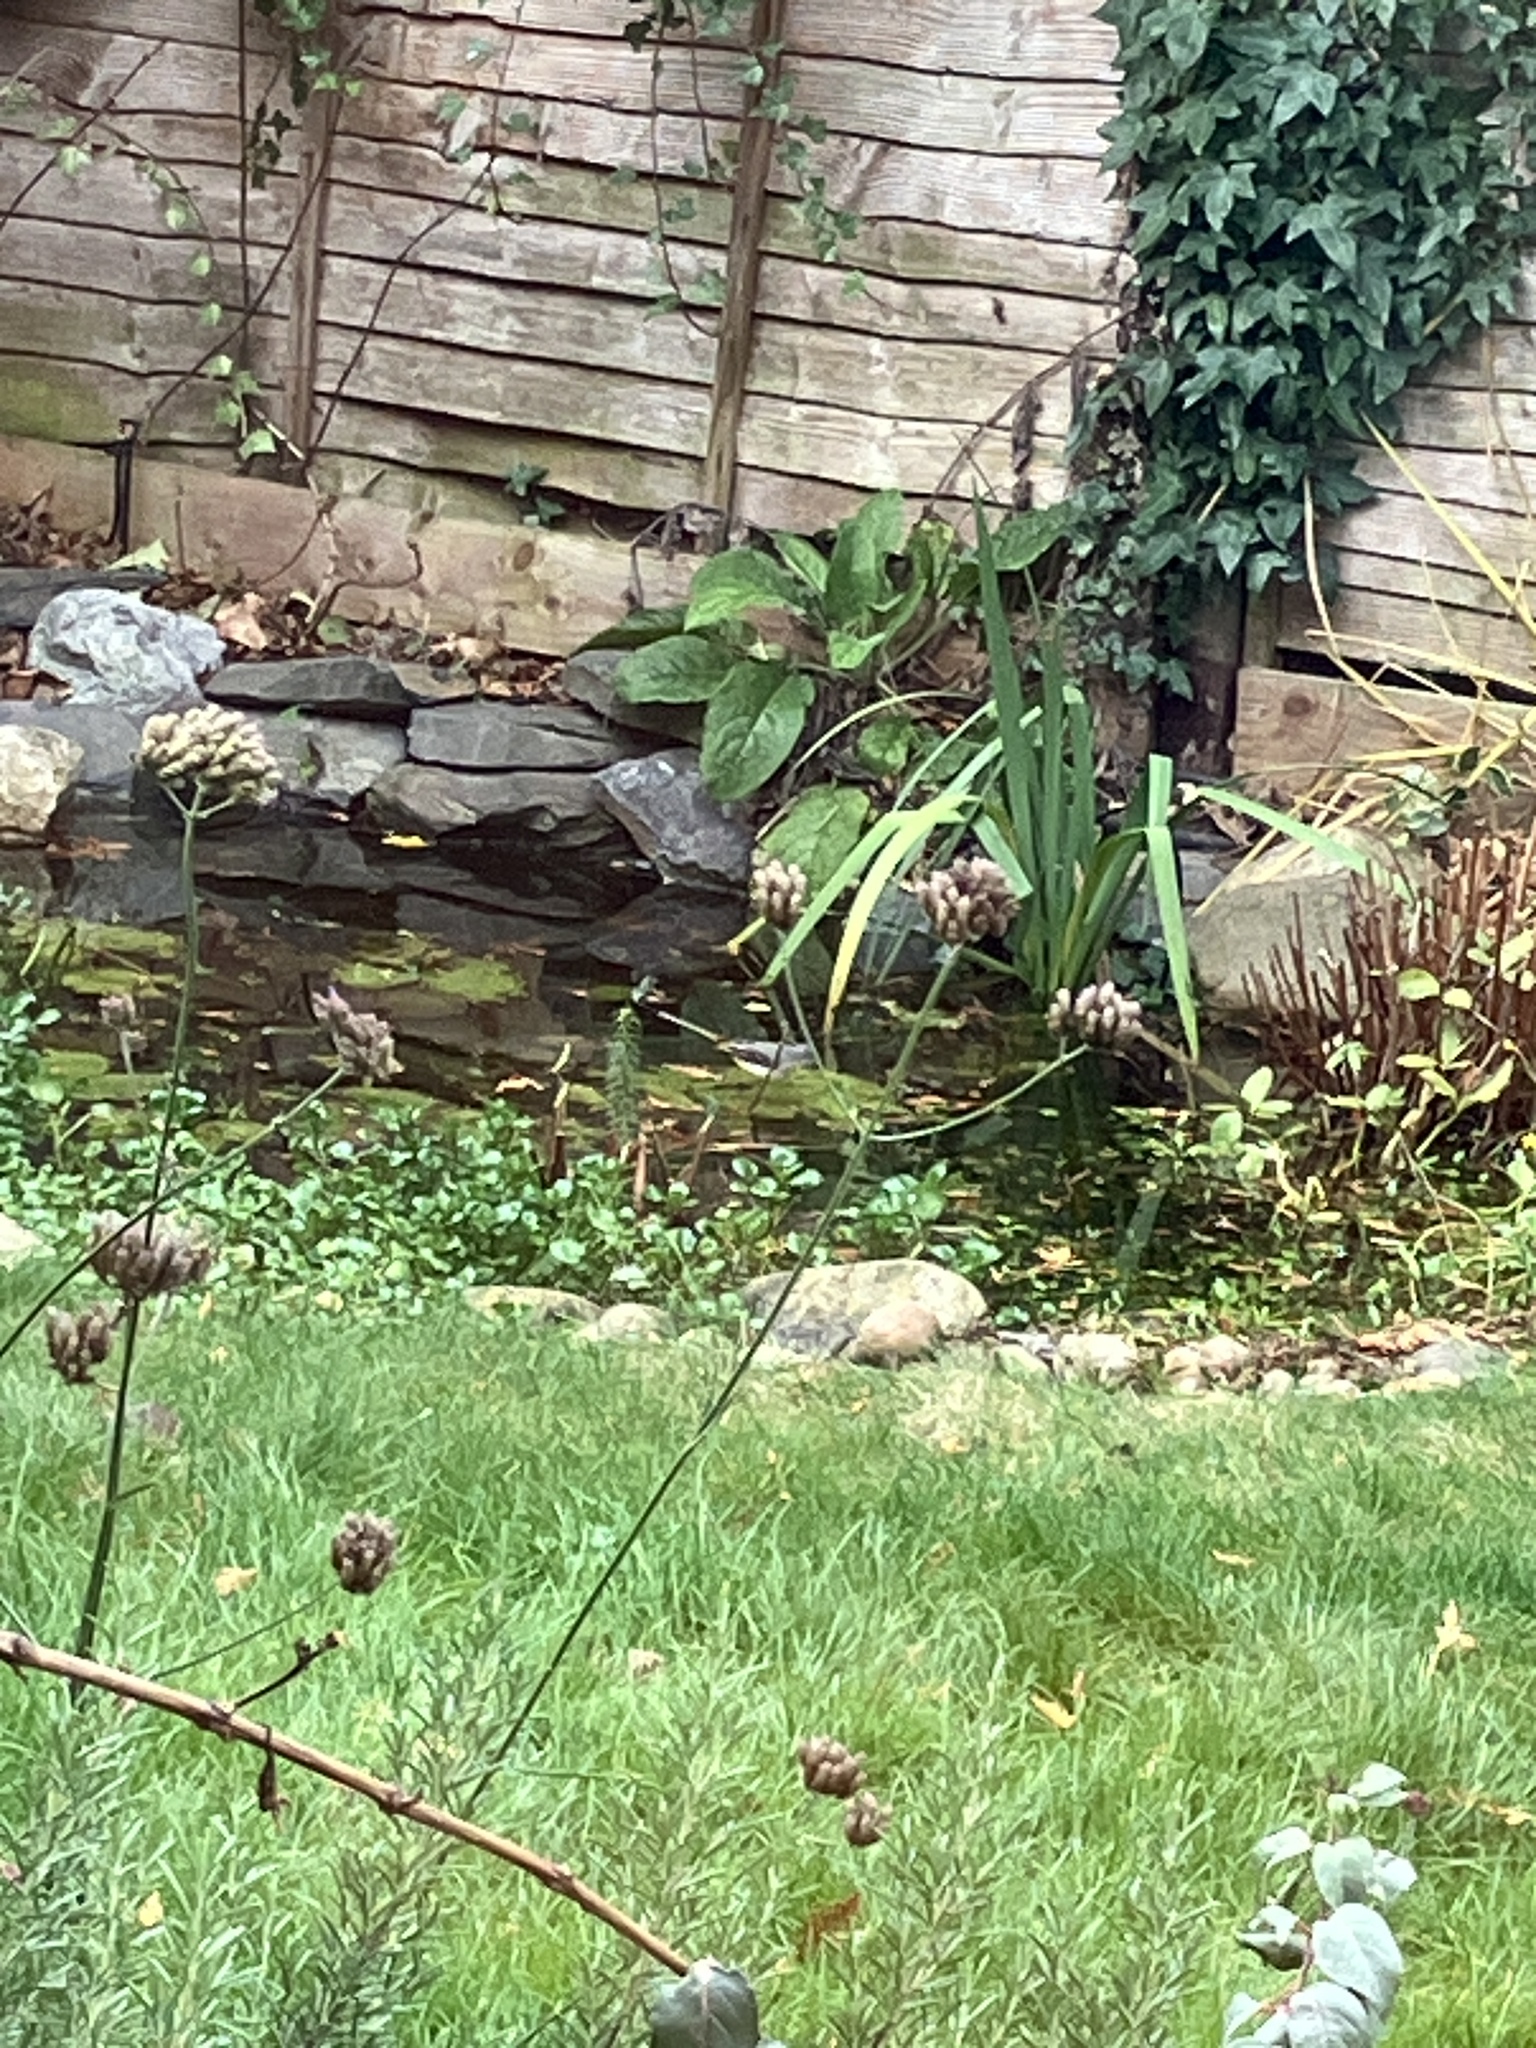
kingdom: Animalia
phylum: Chordata
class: Aves
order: Passeriformes
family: Motacillidae
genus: Motacilla
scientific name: Motacilla cinerea
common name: Grey wagtail
